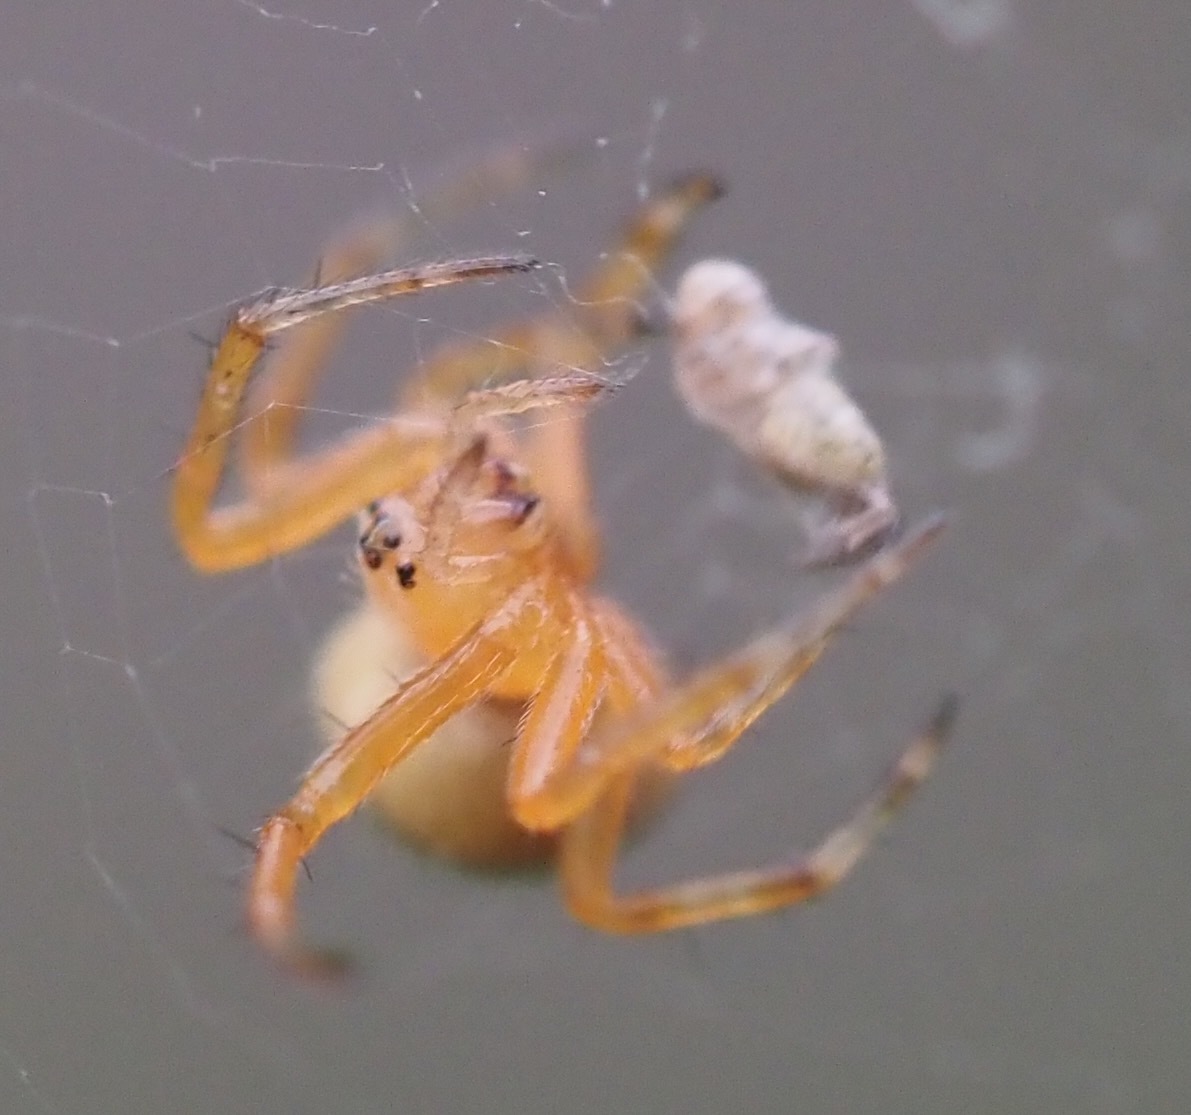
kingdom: Animalia
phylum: Arthropoda
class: Arachnida
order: Araneae
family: Araneidae
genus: Araneus
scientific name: Araneus diadematus
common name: Cross orbweaver
